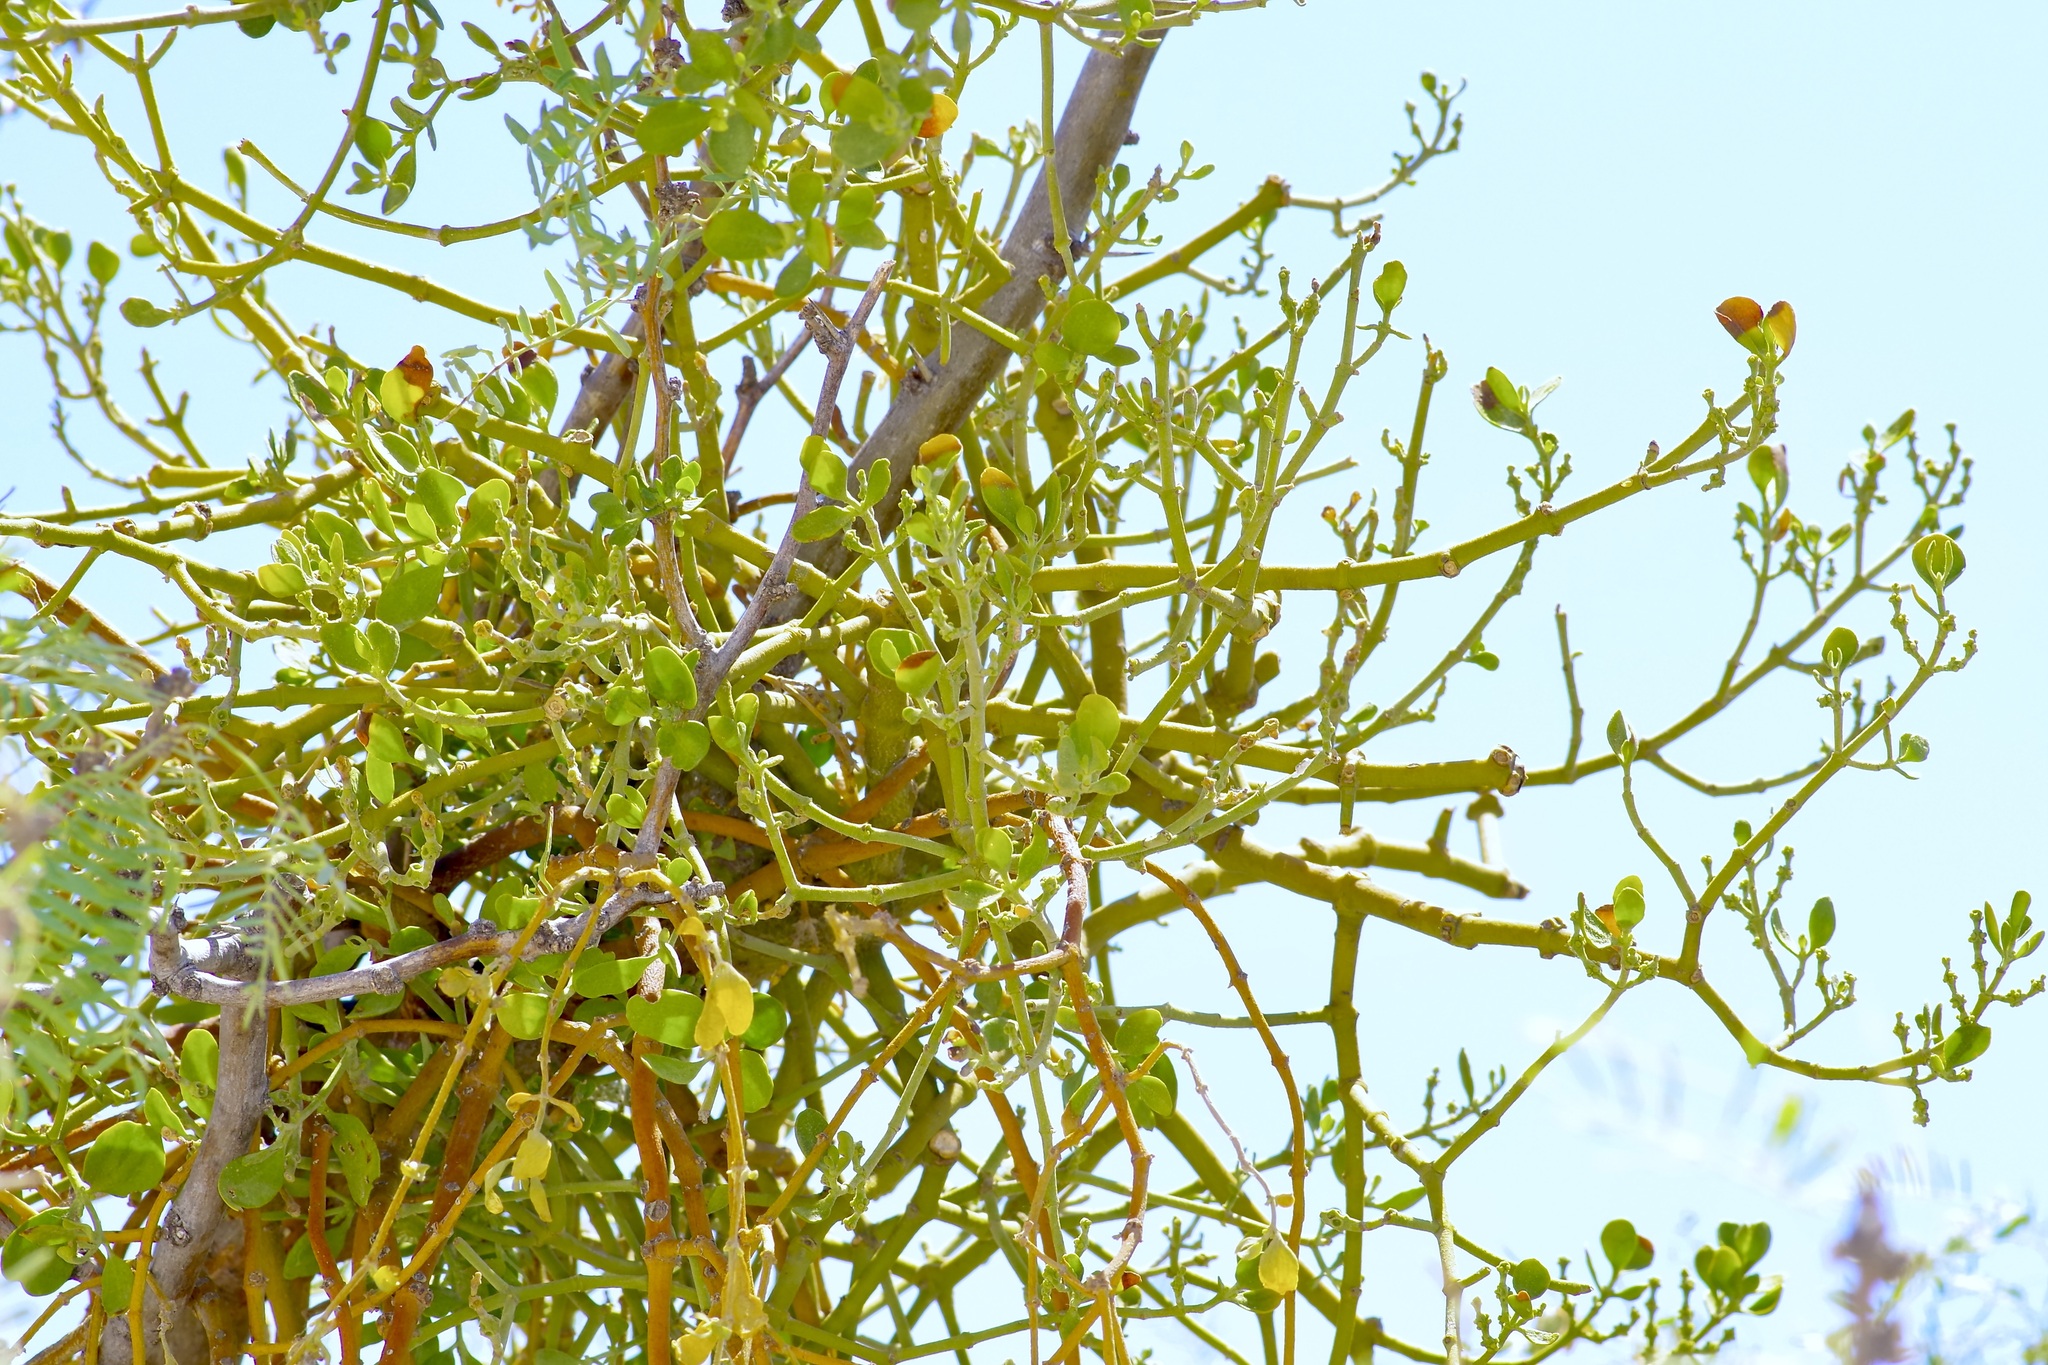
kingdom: Plantae
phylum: Tracheophyta
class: Magnoliopsida
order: Santalales
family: Viscaceae
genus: Phoradendron
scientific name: Phoradendron leucarpum
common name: Pacific mistletoe
